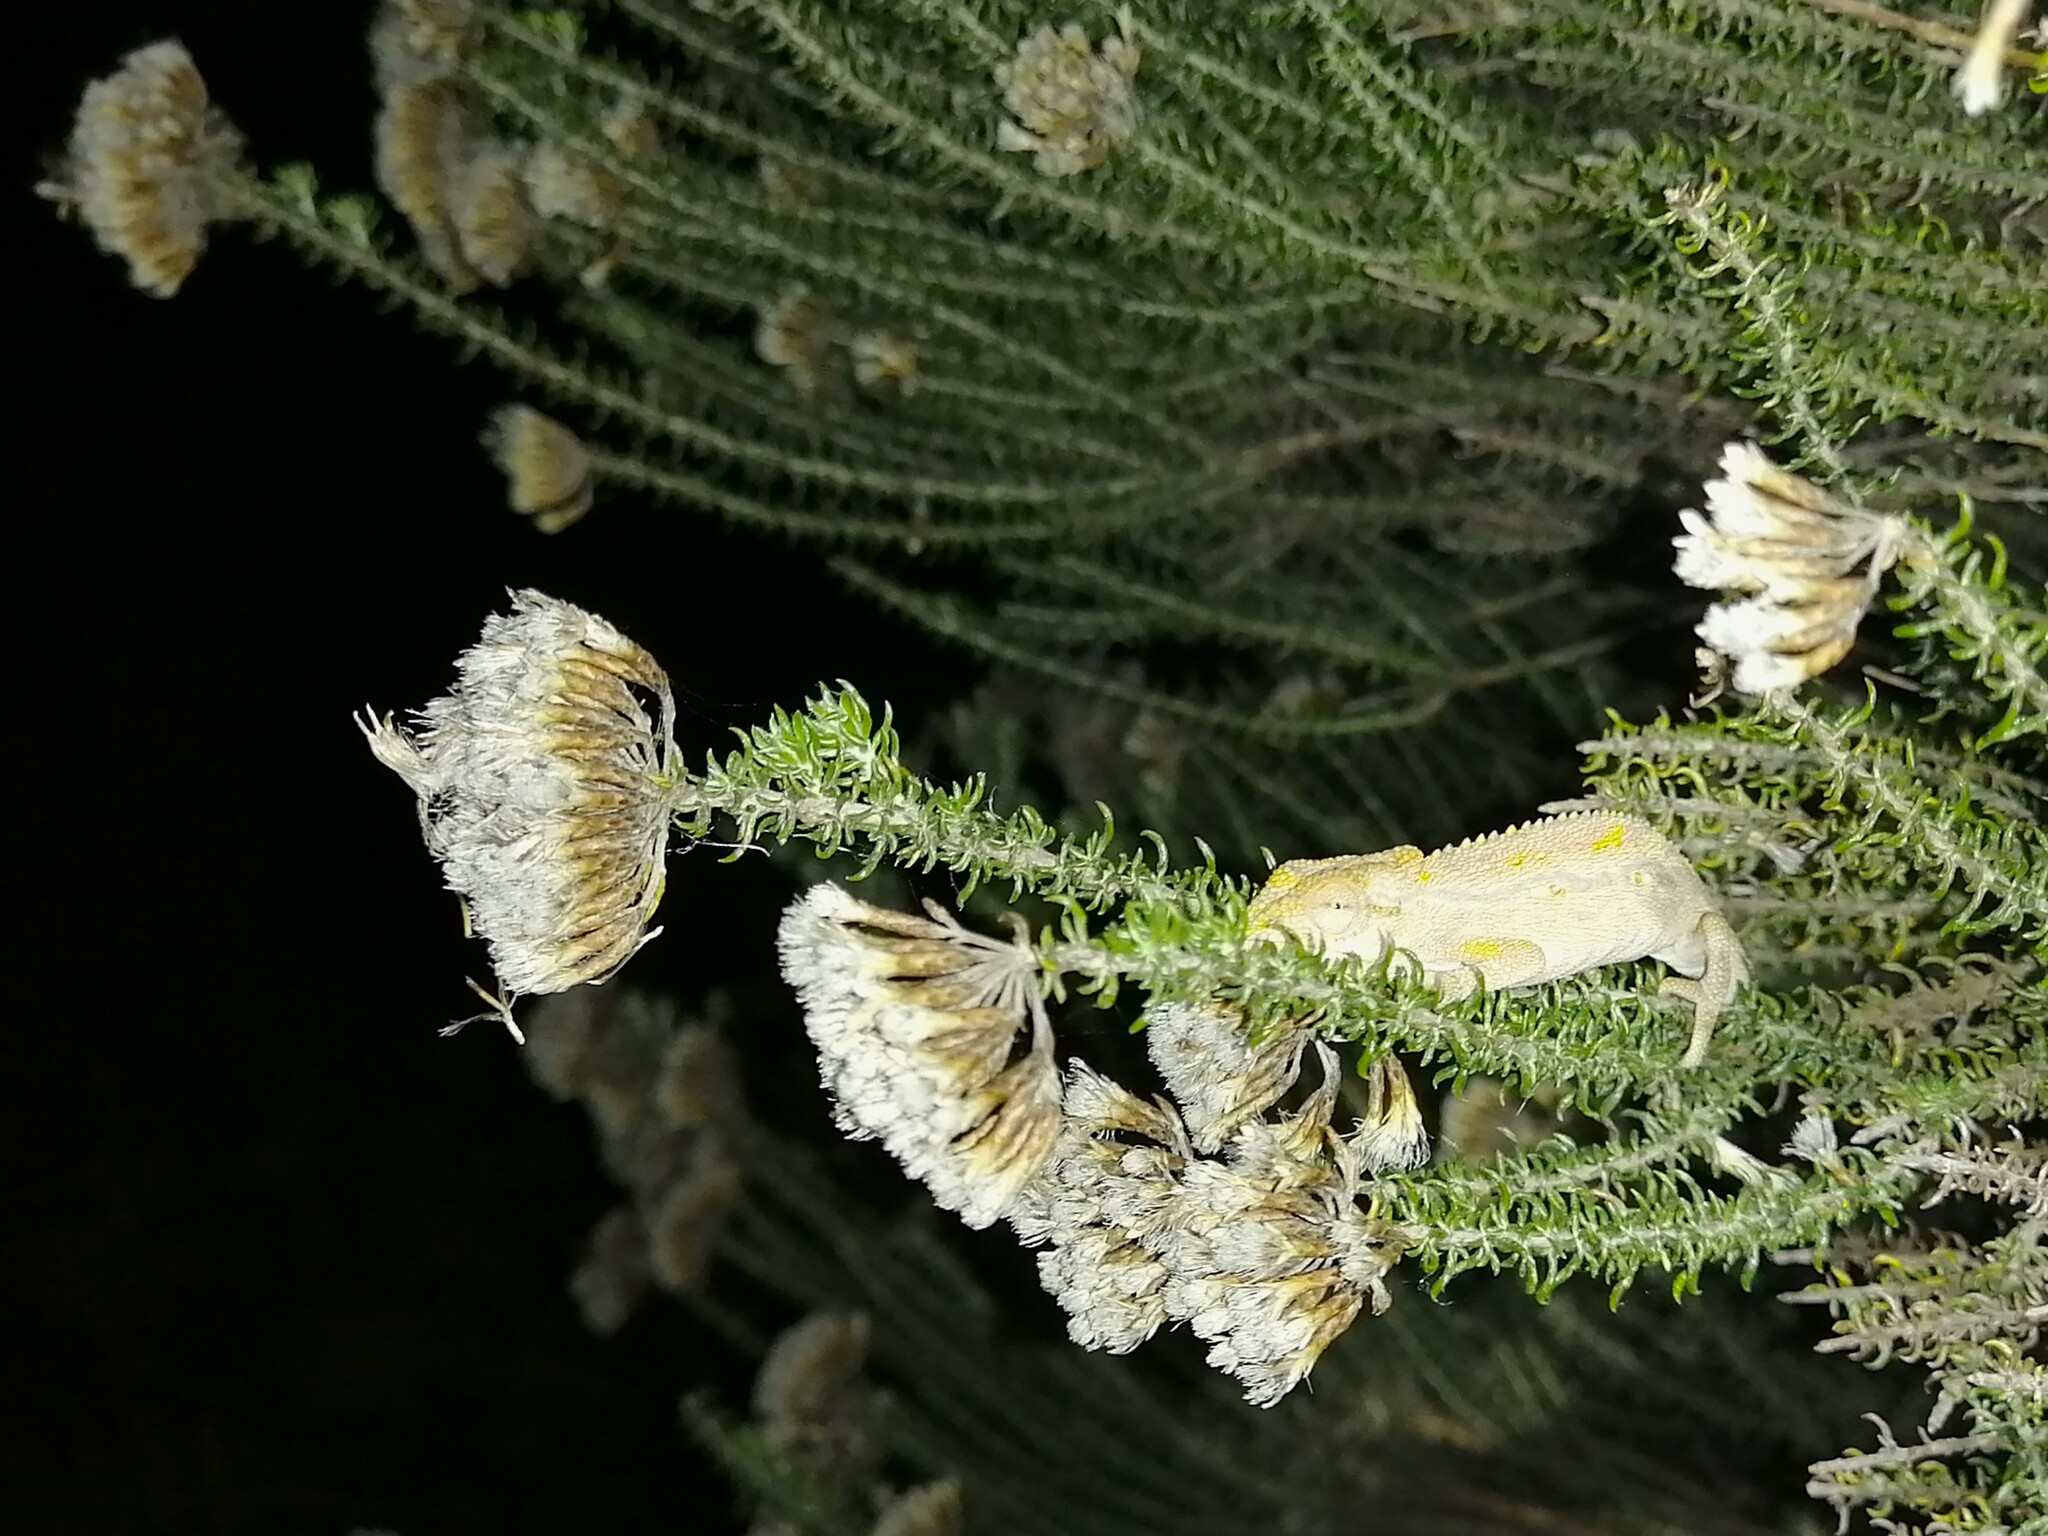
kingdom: Animalia
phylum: Chordata
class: Squamata
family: Chamaeleonidae
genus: Bradypodion
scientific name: Bradypodion pumilum
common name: Cape dwarf chameleon
